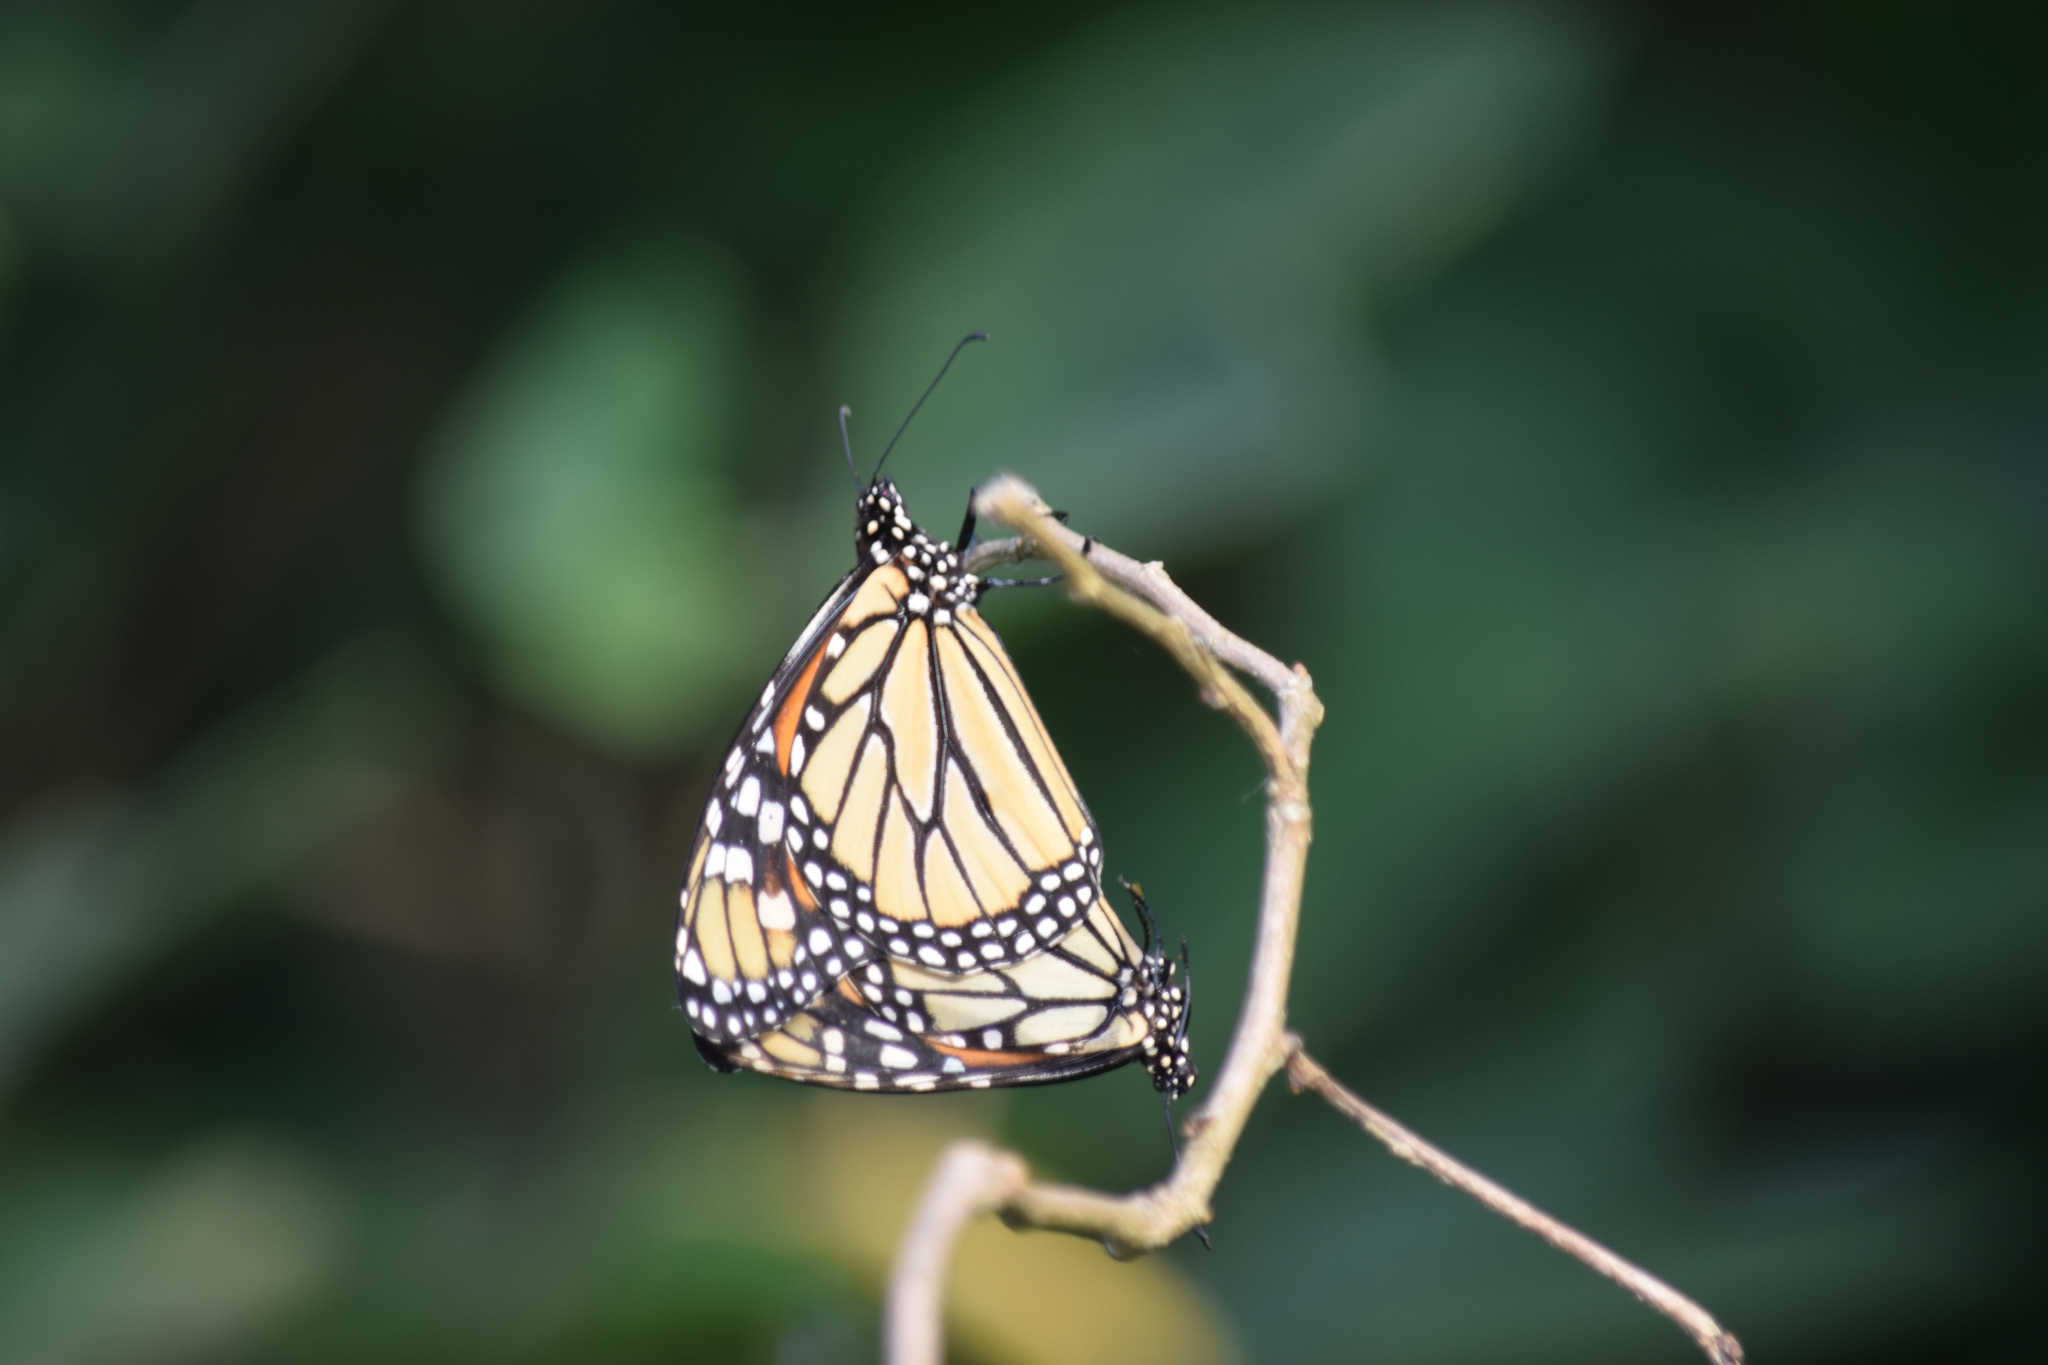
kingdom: Animalia
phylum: Arthropoda
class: Insecta
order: Lepidoptera
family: Nymphalidae
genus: Danaus
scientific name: Danaus plexippus
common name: Monarch
